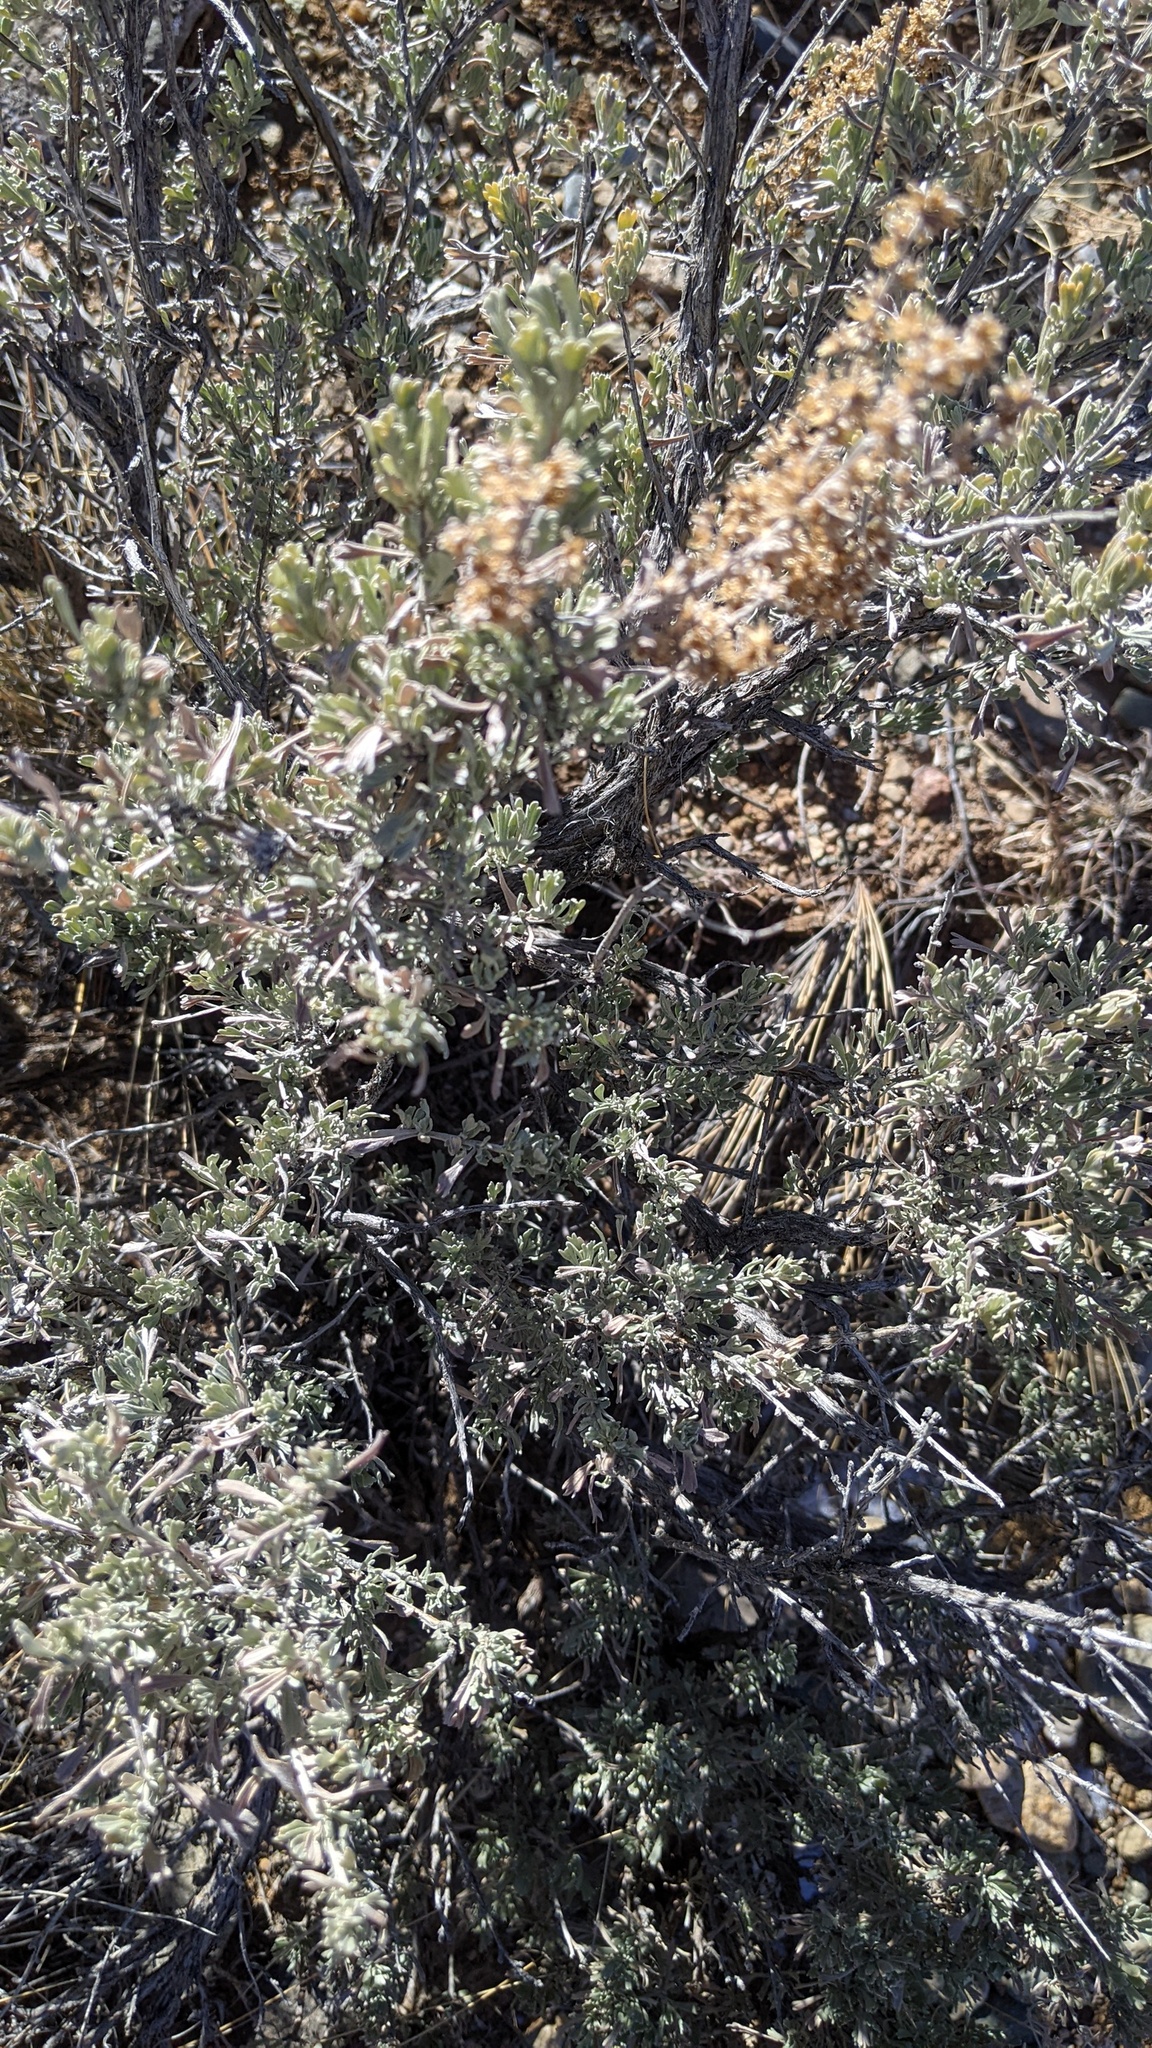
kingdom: Plantae
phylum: Tracheophyta
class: Magnoliopsida
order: Asterales
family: Asteraceae
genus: Artemisia
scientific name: Artemisia tridentata
